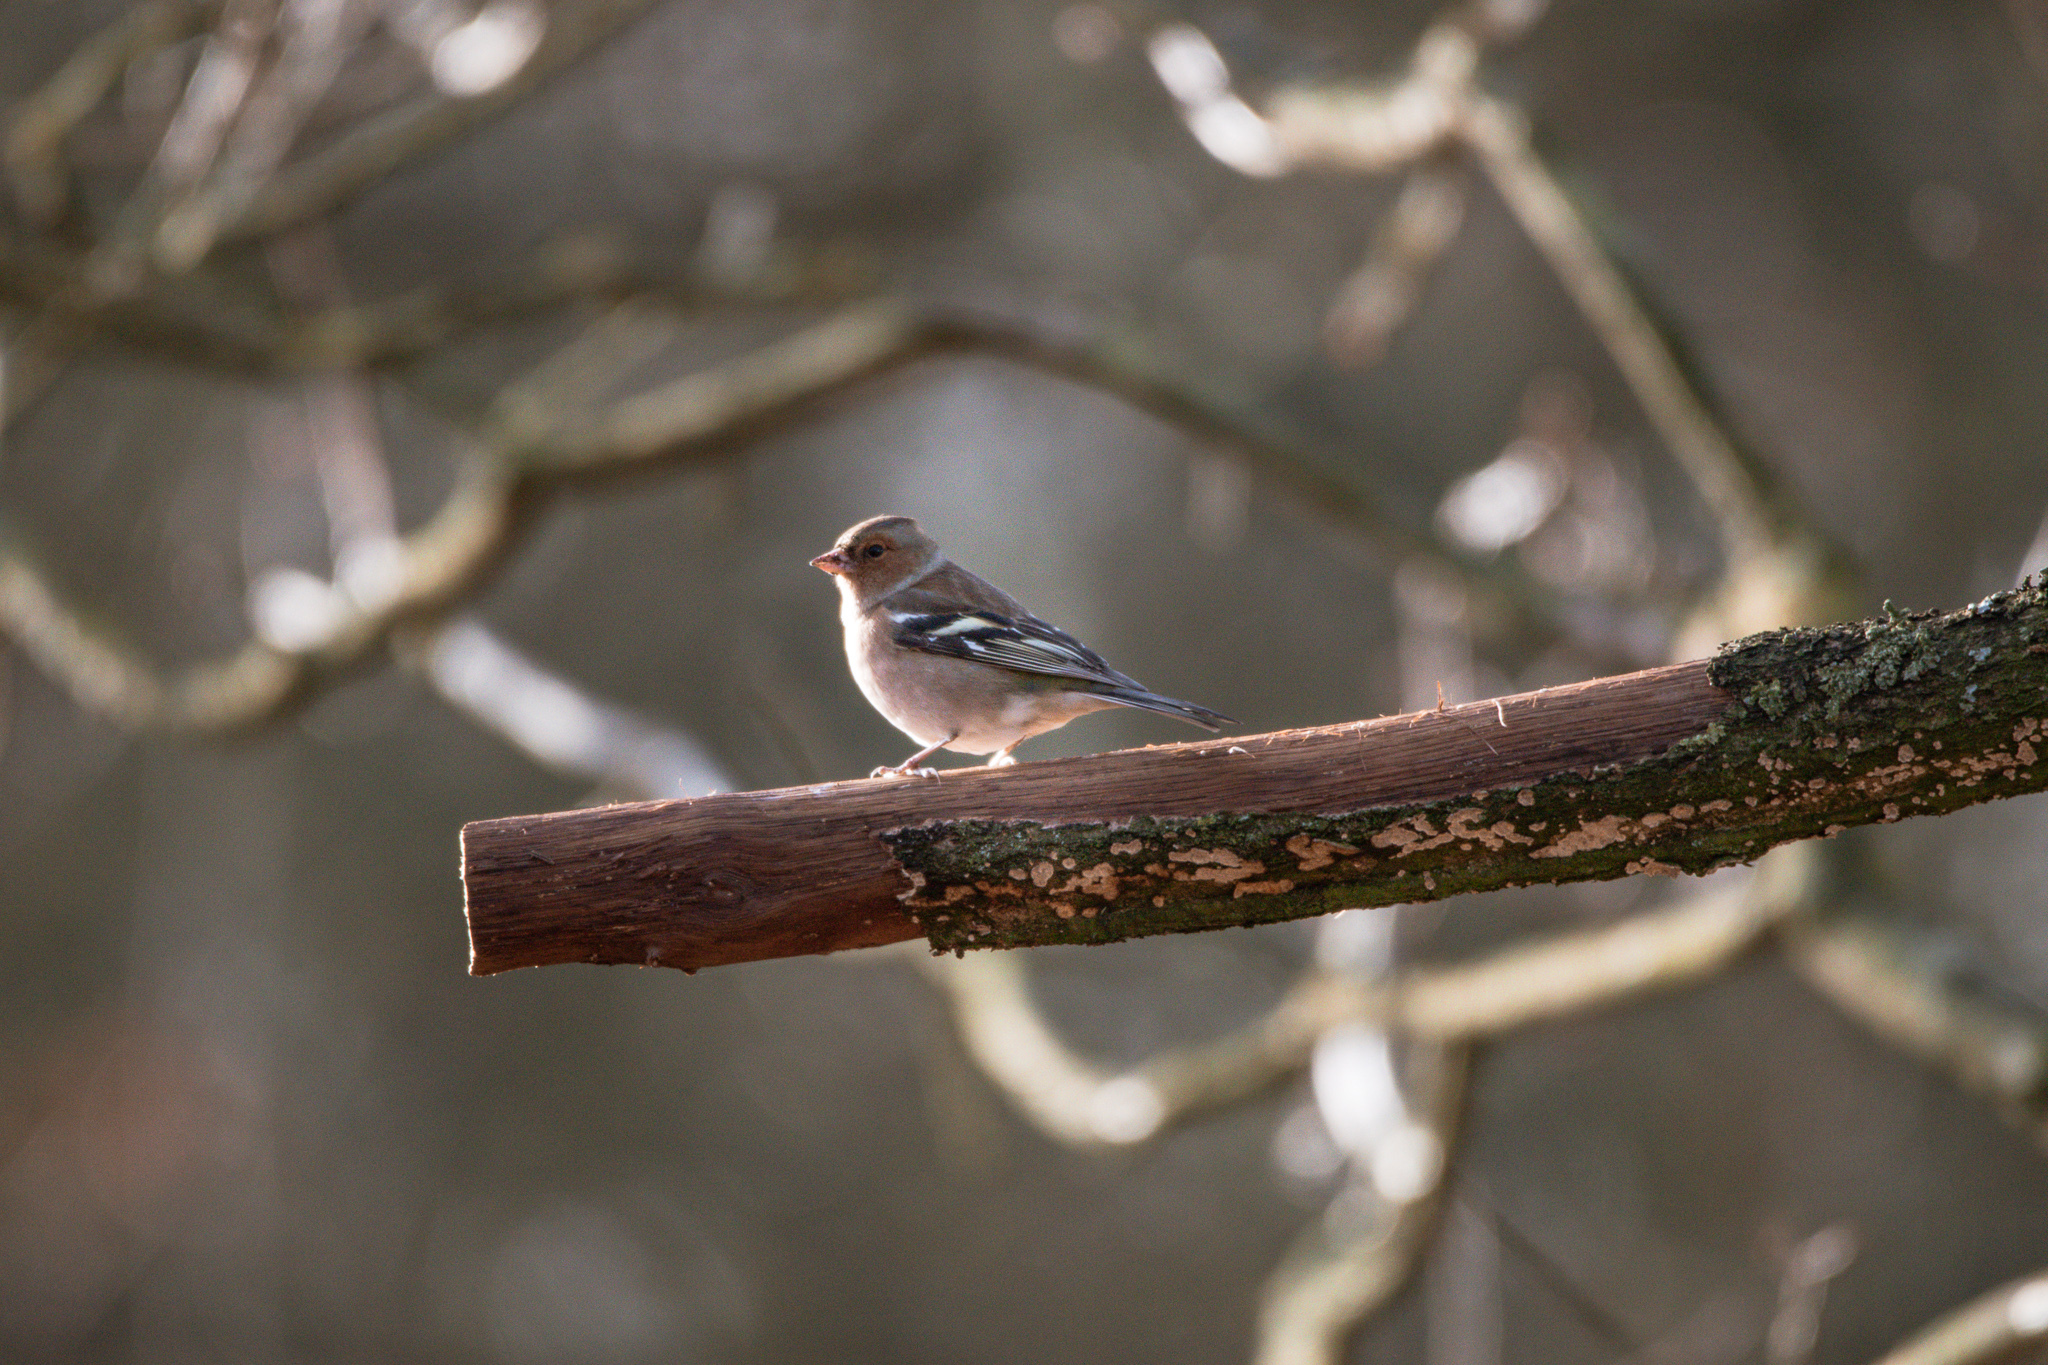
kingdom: Animalia
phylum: Chordata
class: Aves
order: Passeriformes
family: Fringillidae
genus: Fringilla
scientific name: Fringilla coelebs
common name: Common chaffinch
